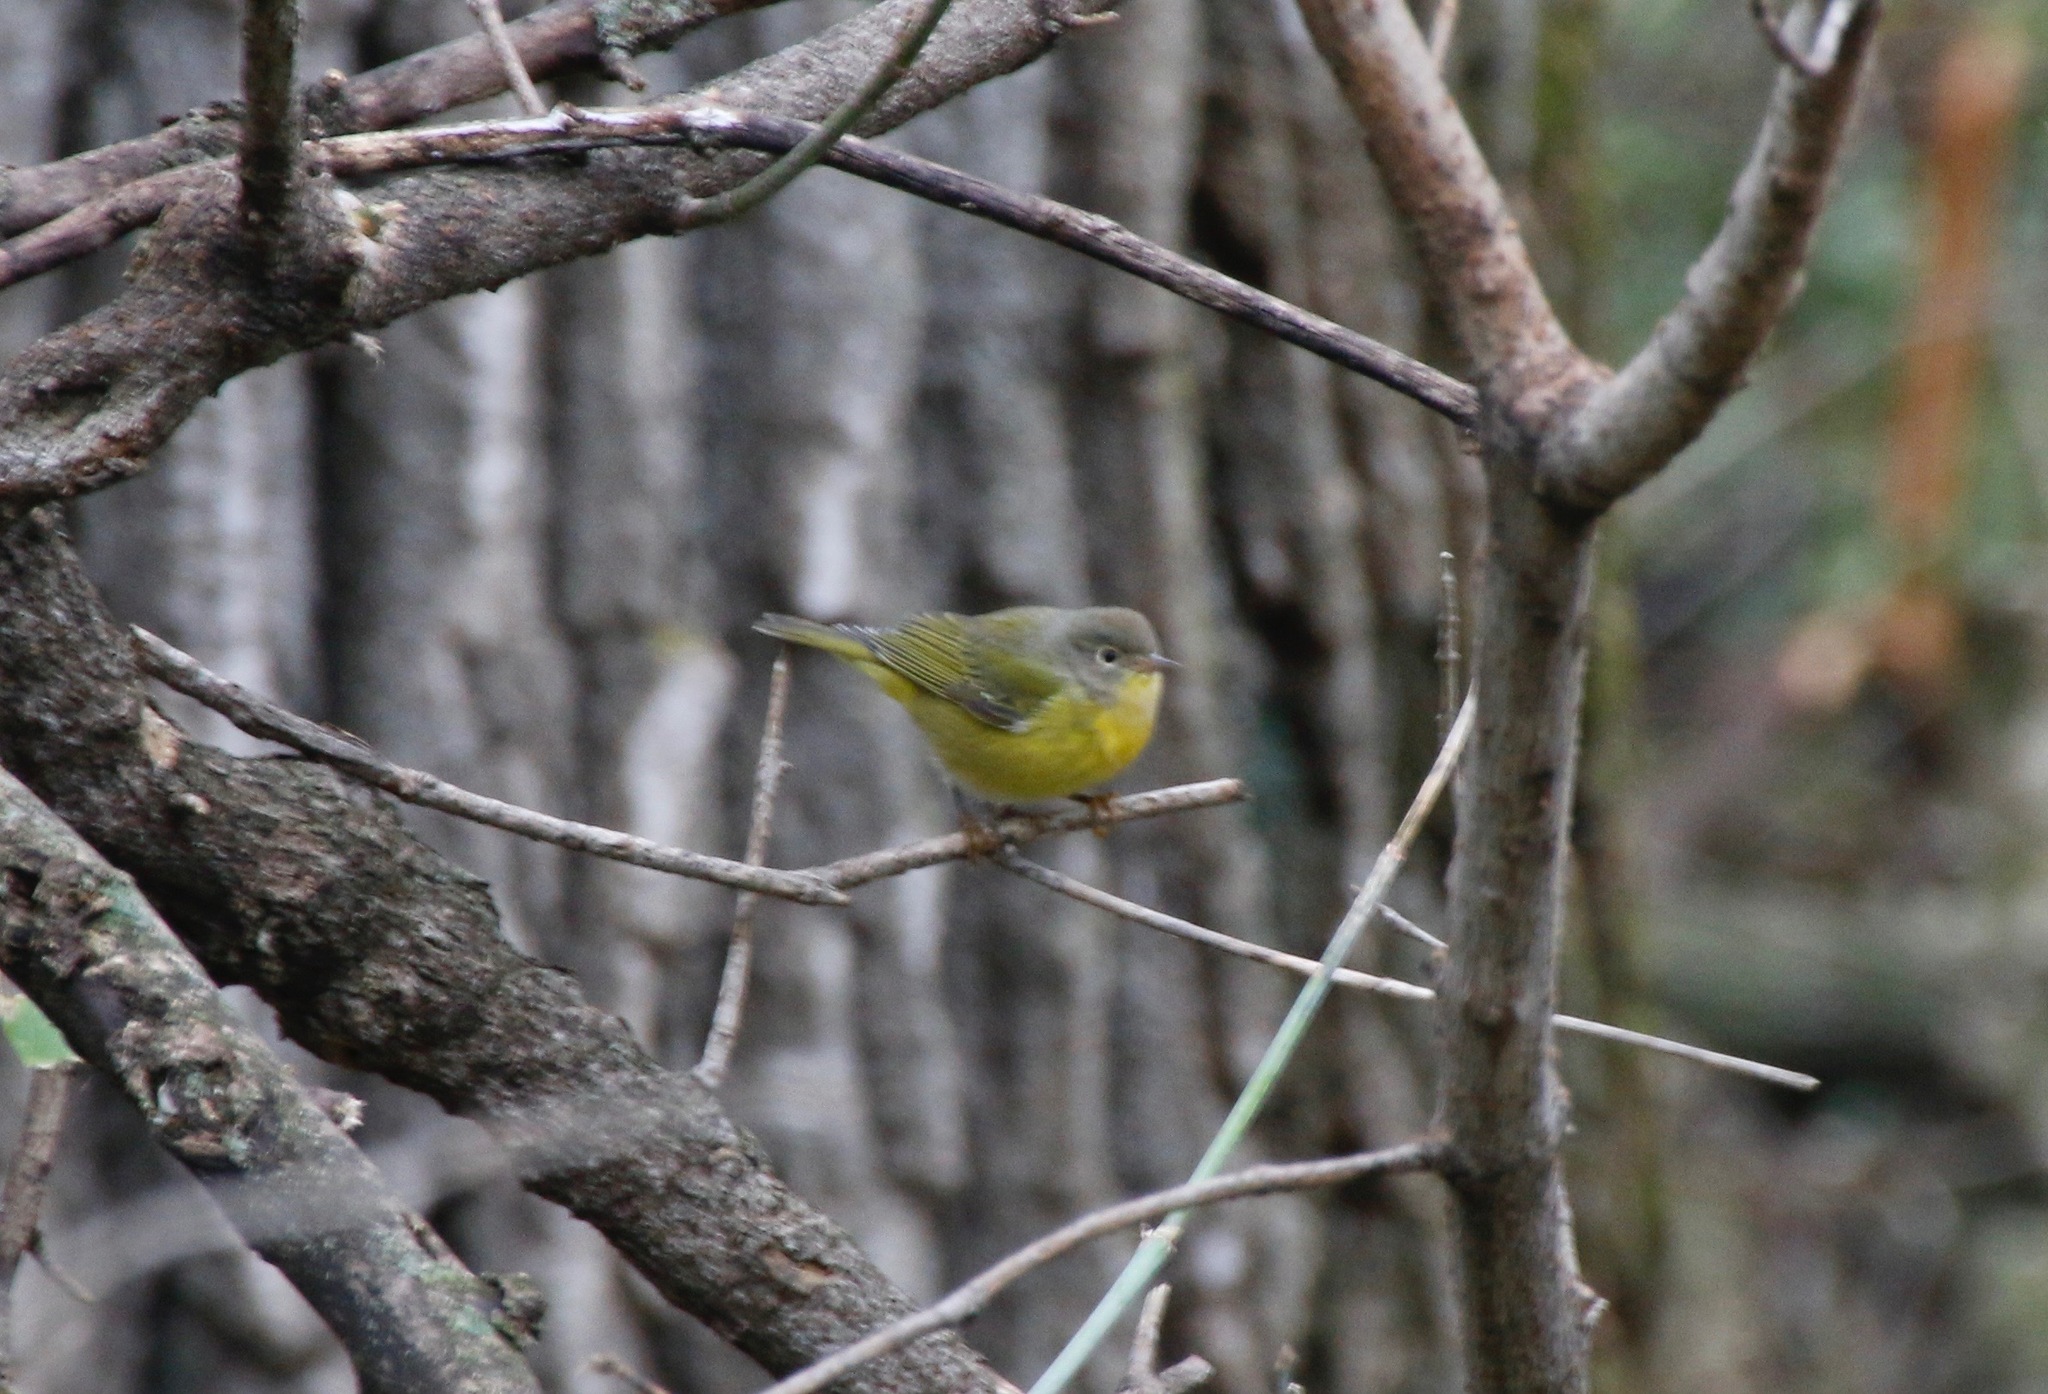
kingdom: Animalia
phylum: Chordata
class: Aves
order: Passeriformes
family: Parulidae
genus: Leiothlypis
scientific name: Leiothlypis ruficapilla
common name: Nashville warbler
